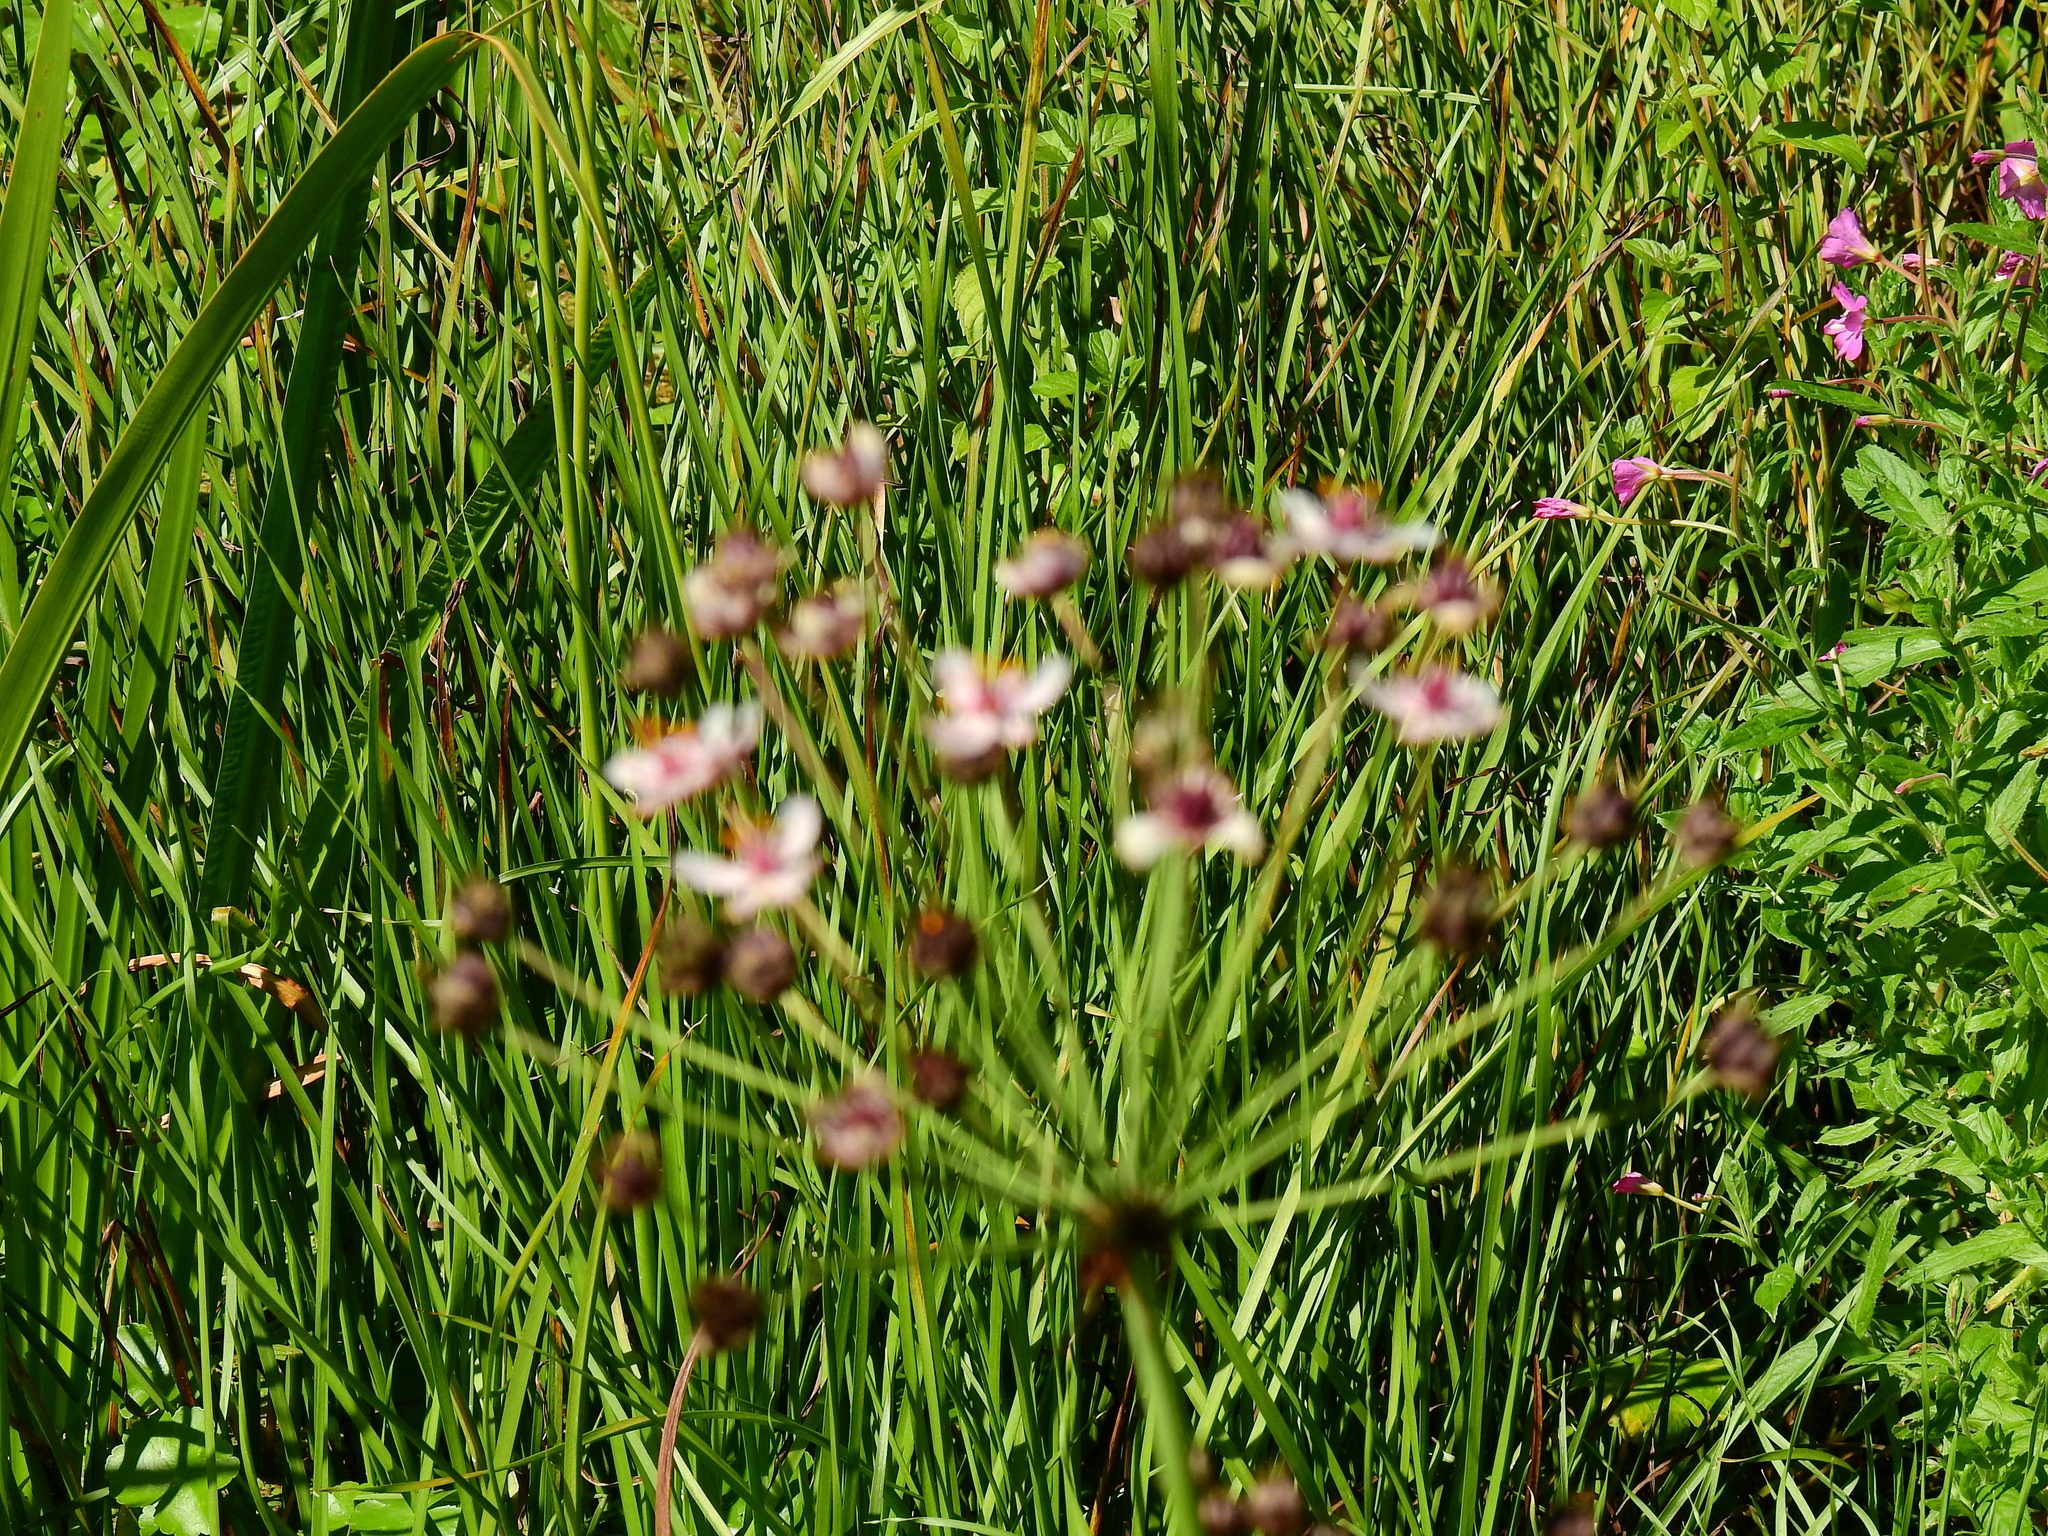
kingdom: Plantae
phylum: Tracheophyta
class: Liliopsida
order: Alismatales
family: Butomaceae
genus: Butomus
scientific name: Butomus umbellatus
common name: Flowering-rush
